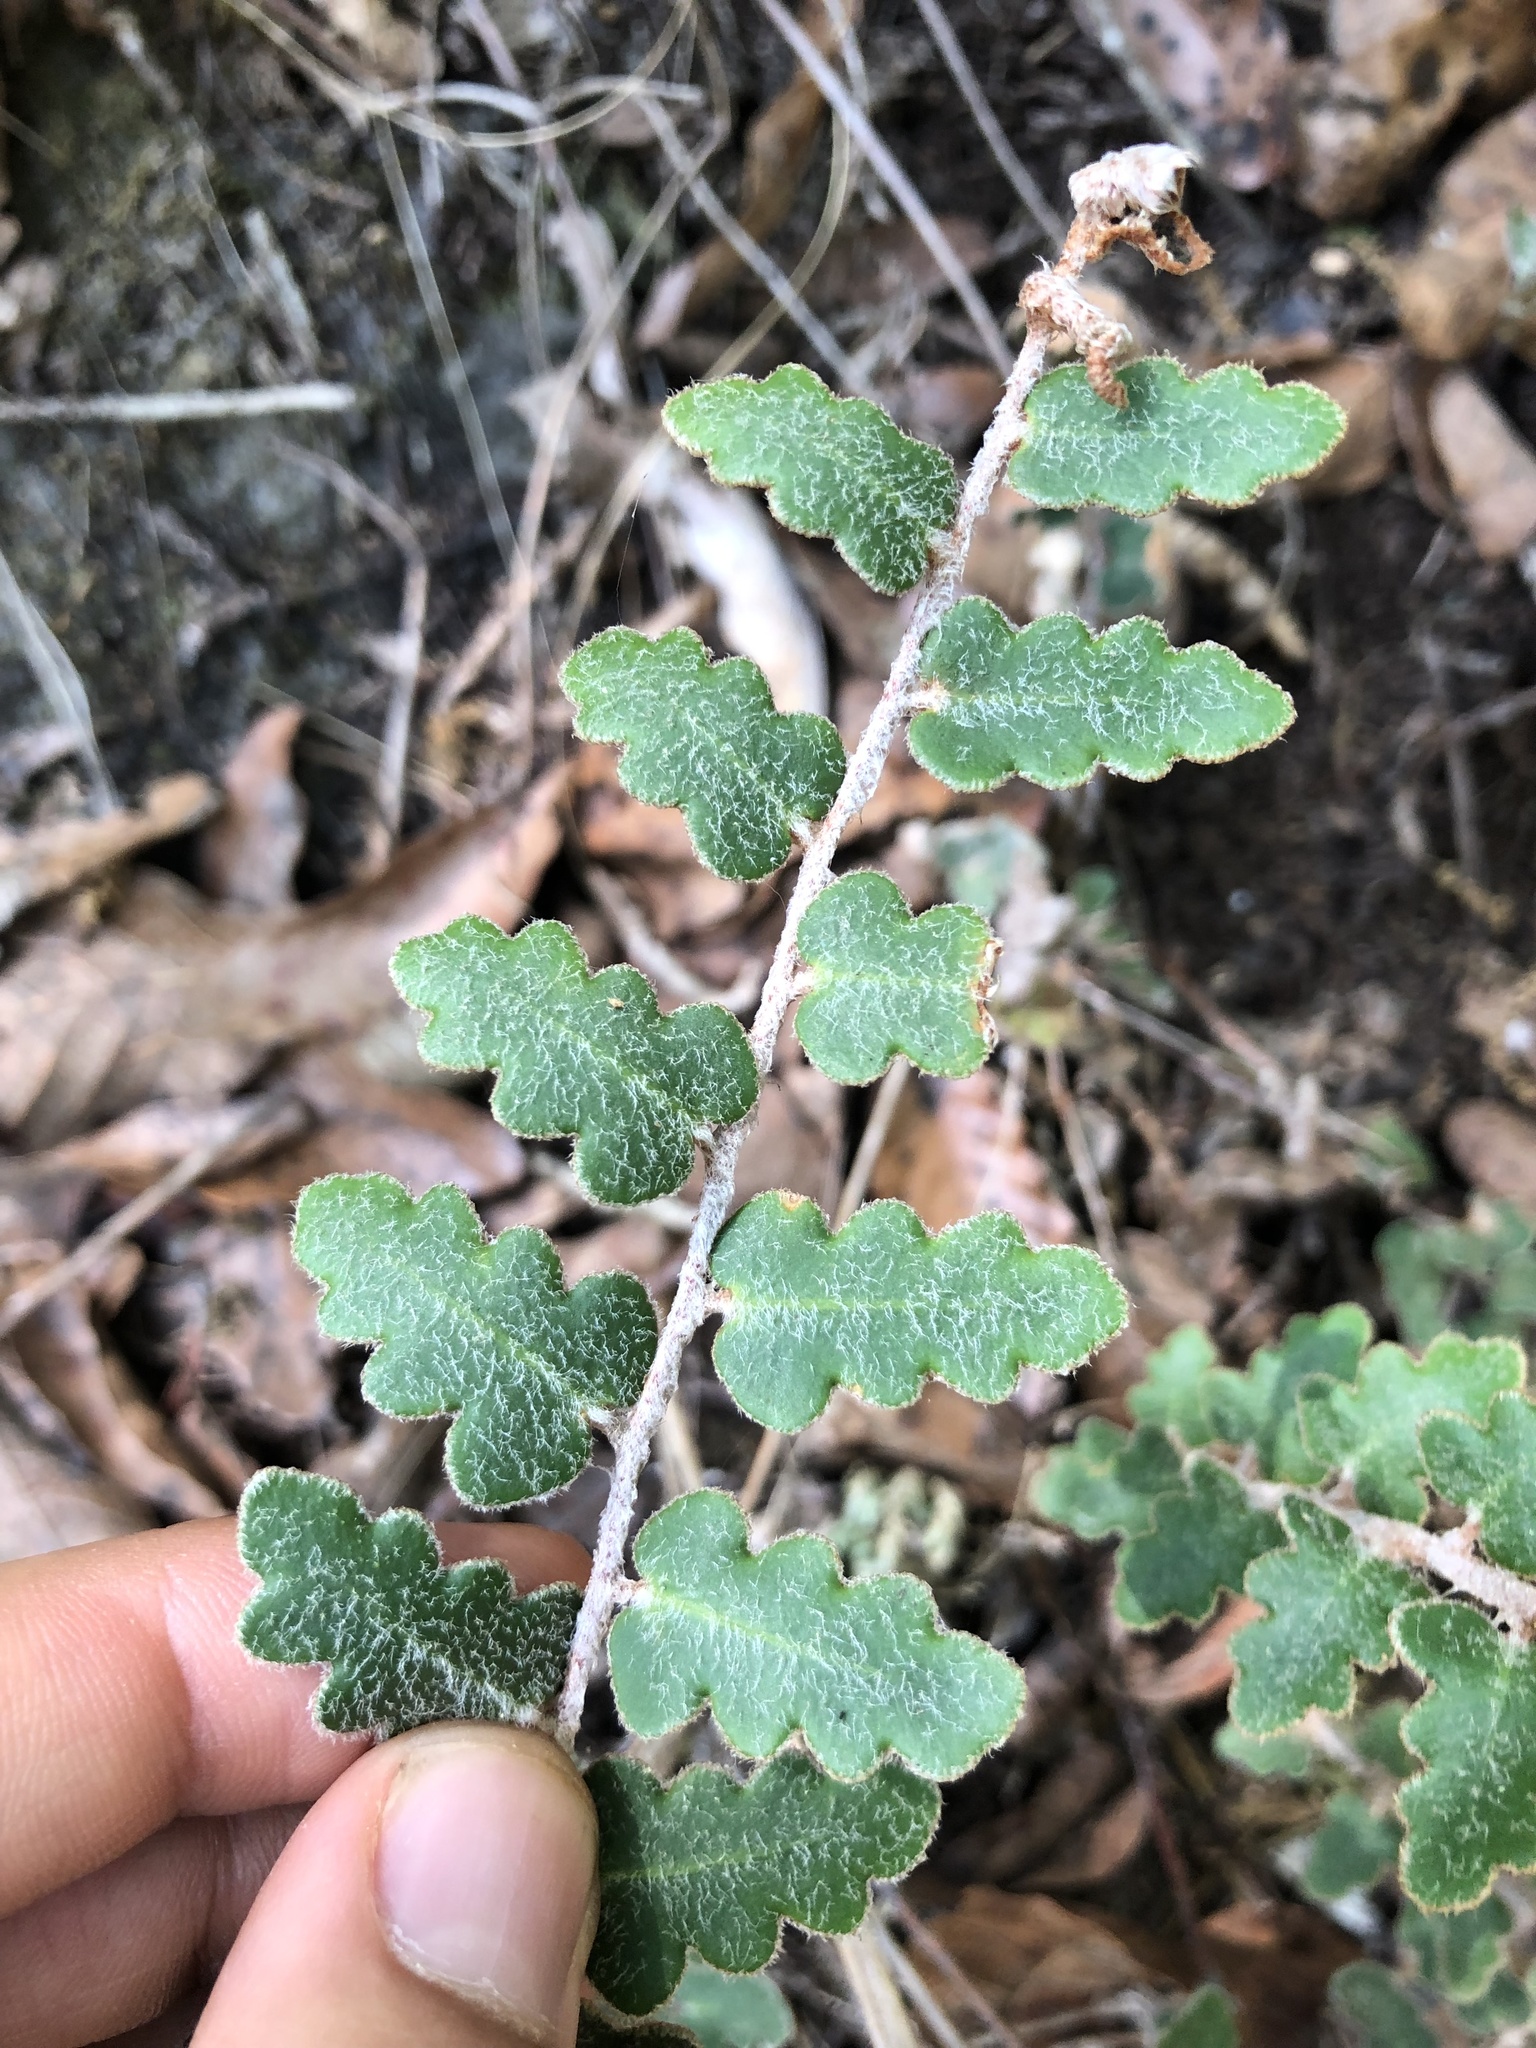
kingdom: Plantae
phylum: Tracheophyta
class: Polypodiopsida
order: Polypodiales
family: Pteridaceae
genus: Astrolepis
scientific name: Astrolepis sinuata
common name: Wavy scaly cloakfern
